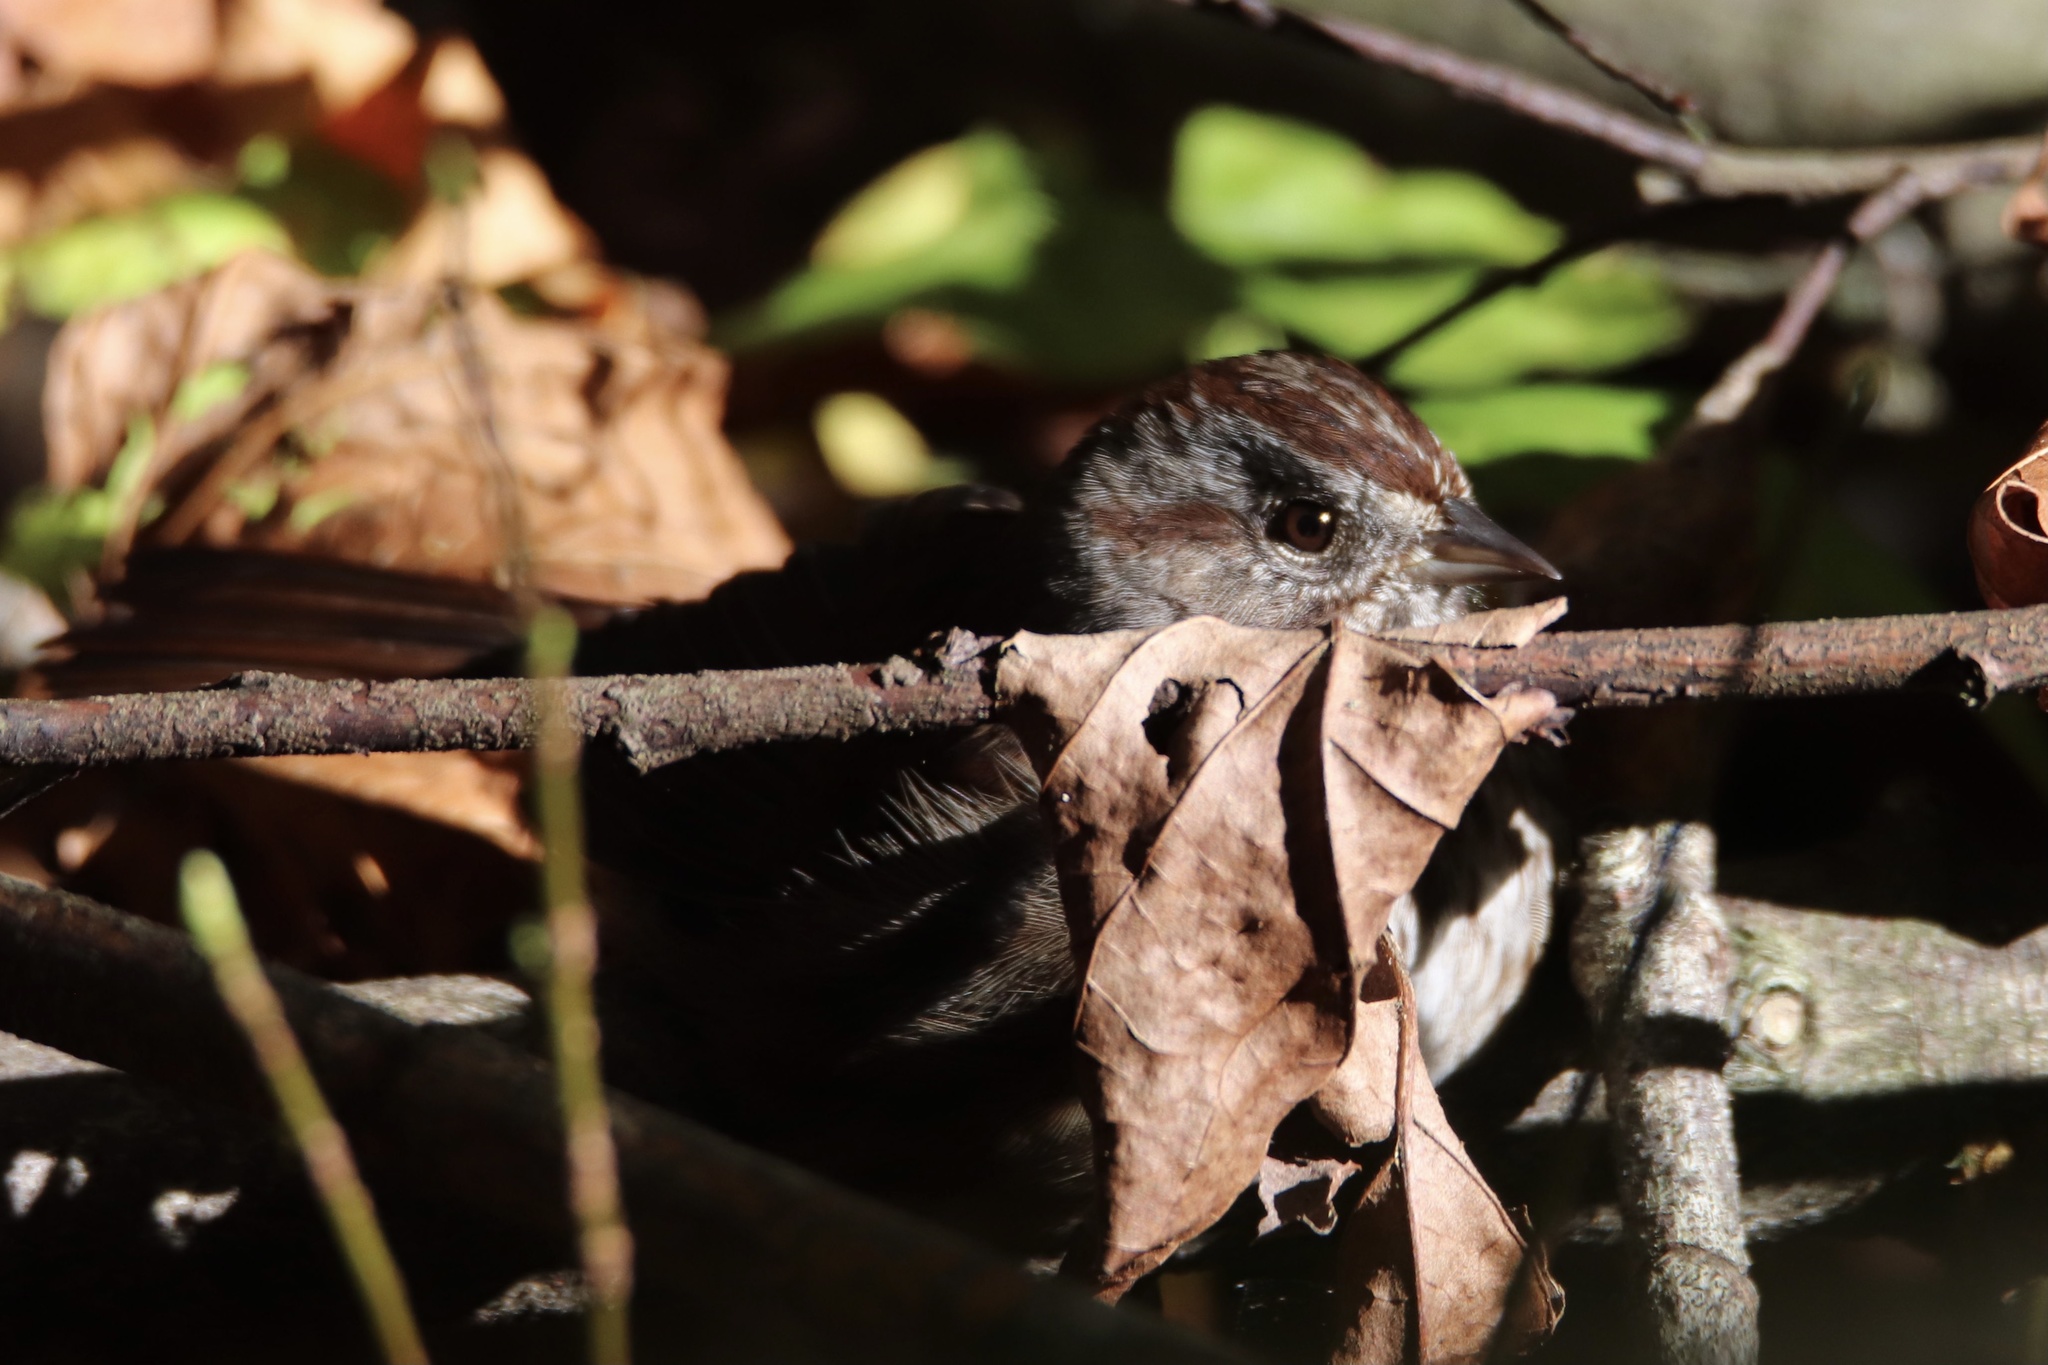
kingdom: Animalia
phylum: Chordata
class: Aves
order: Passeriformes
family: Passerellidae
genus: Melospiza
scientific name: Melospiza melodia
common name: Song sparrow
